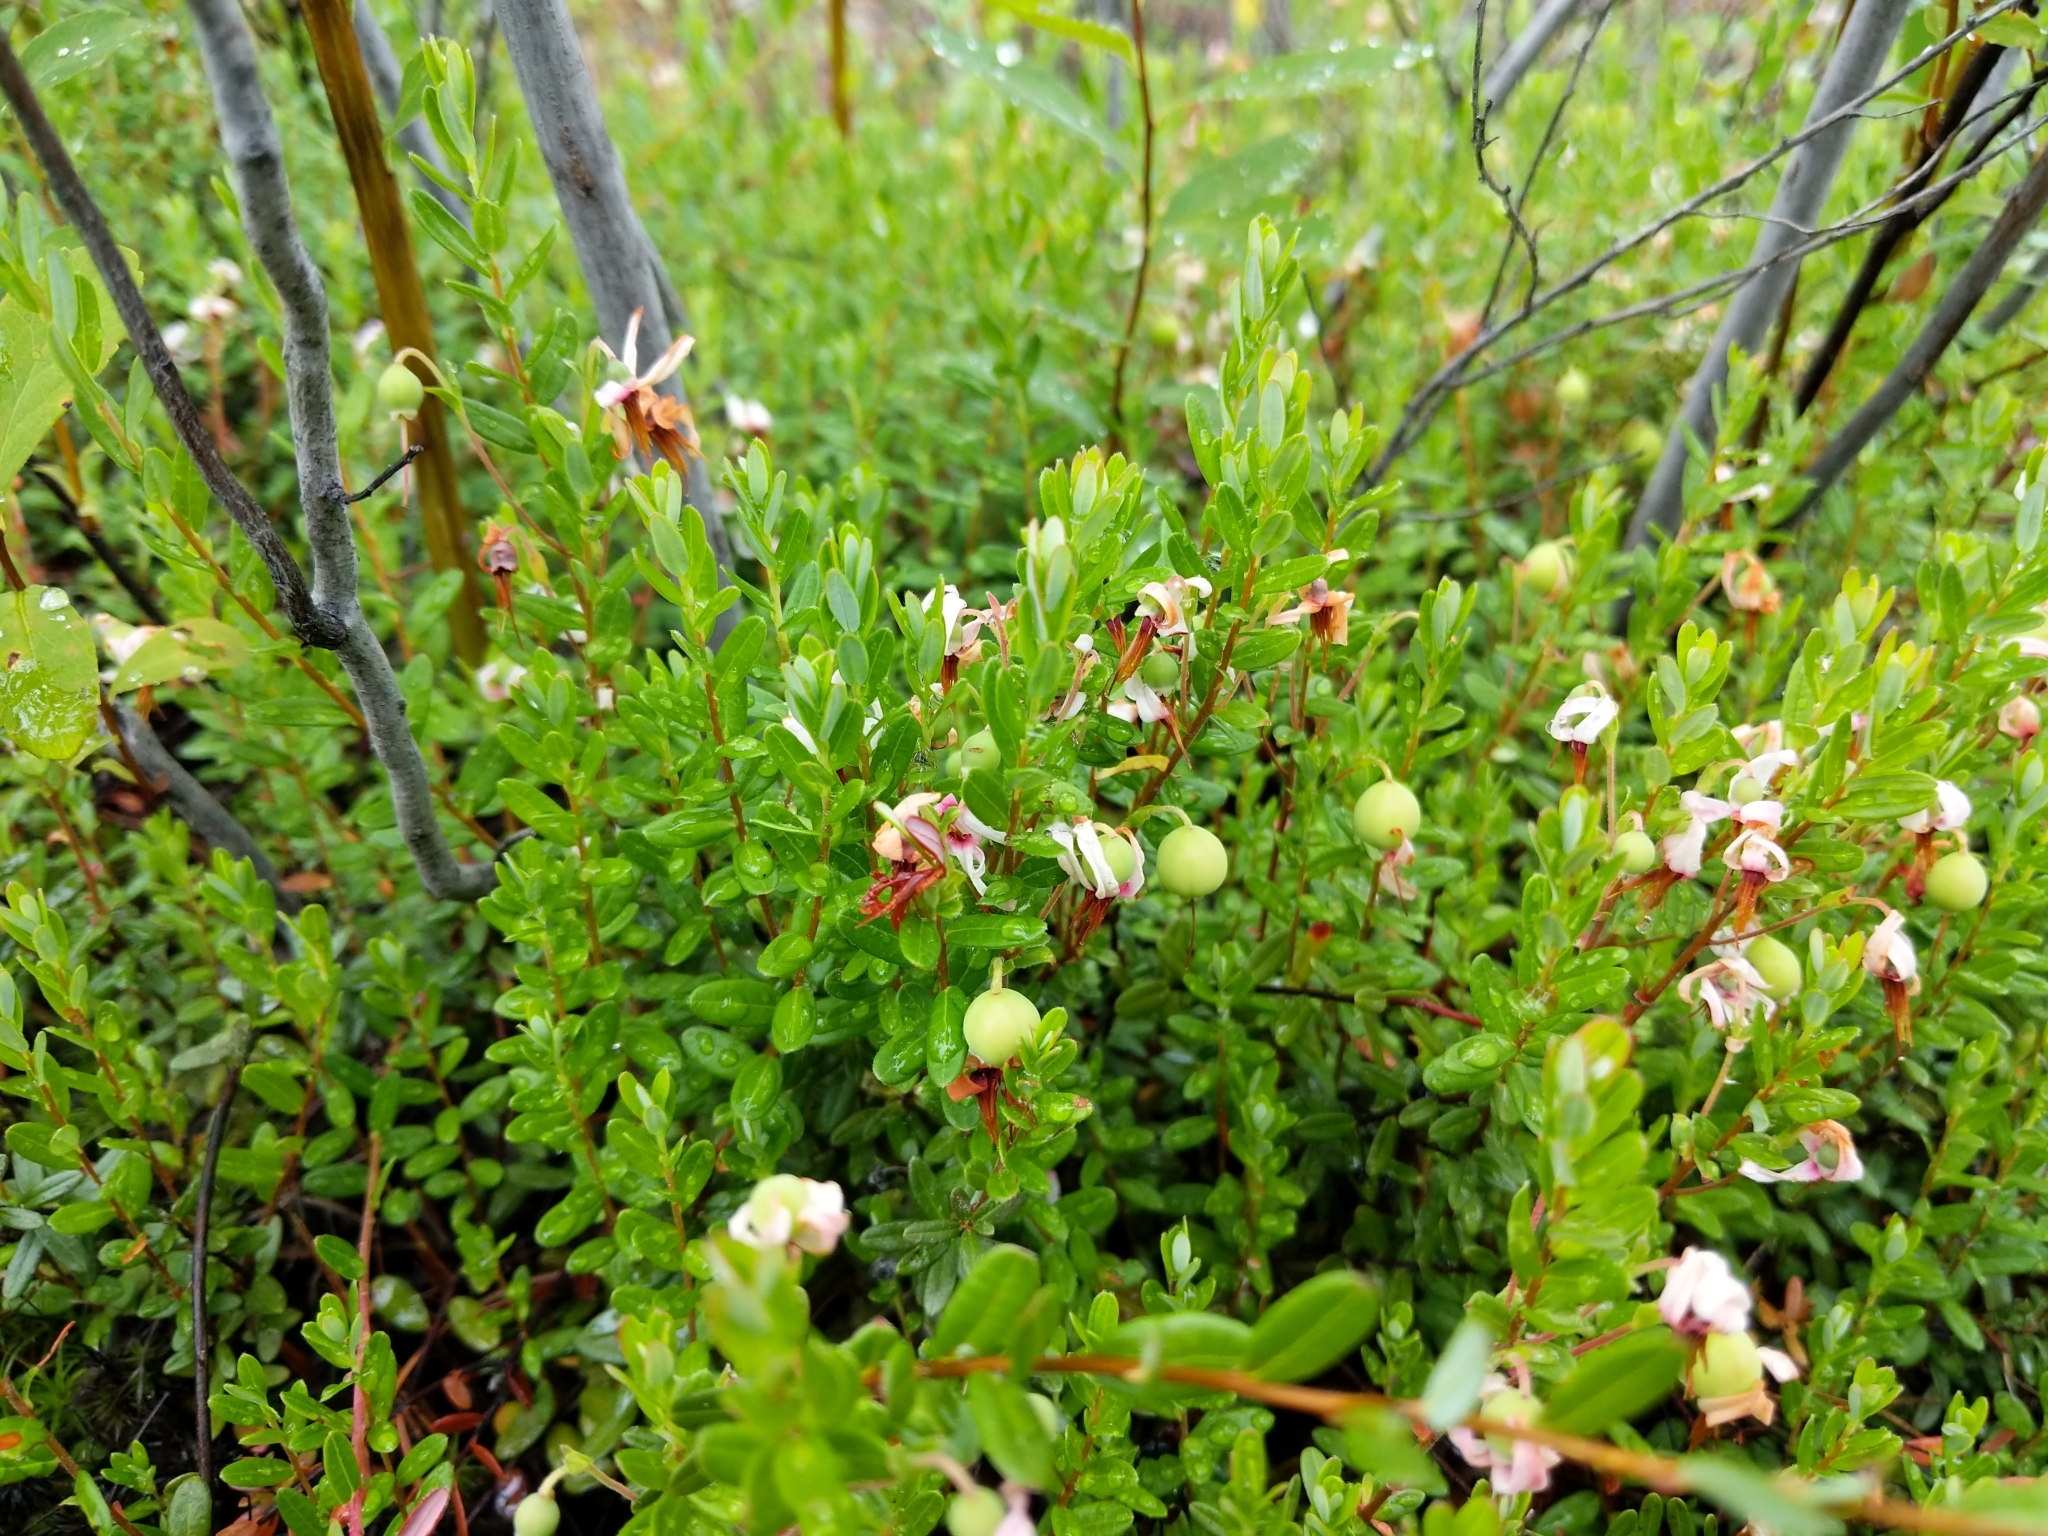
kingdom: Plantae
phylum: Tracheophyta
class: Magnoliopsida
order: Ericales
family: Ericaceae
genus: Vaccinium
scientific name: Vaccinium macrocarpon
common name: American cranberry
